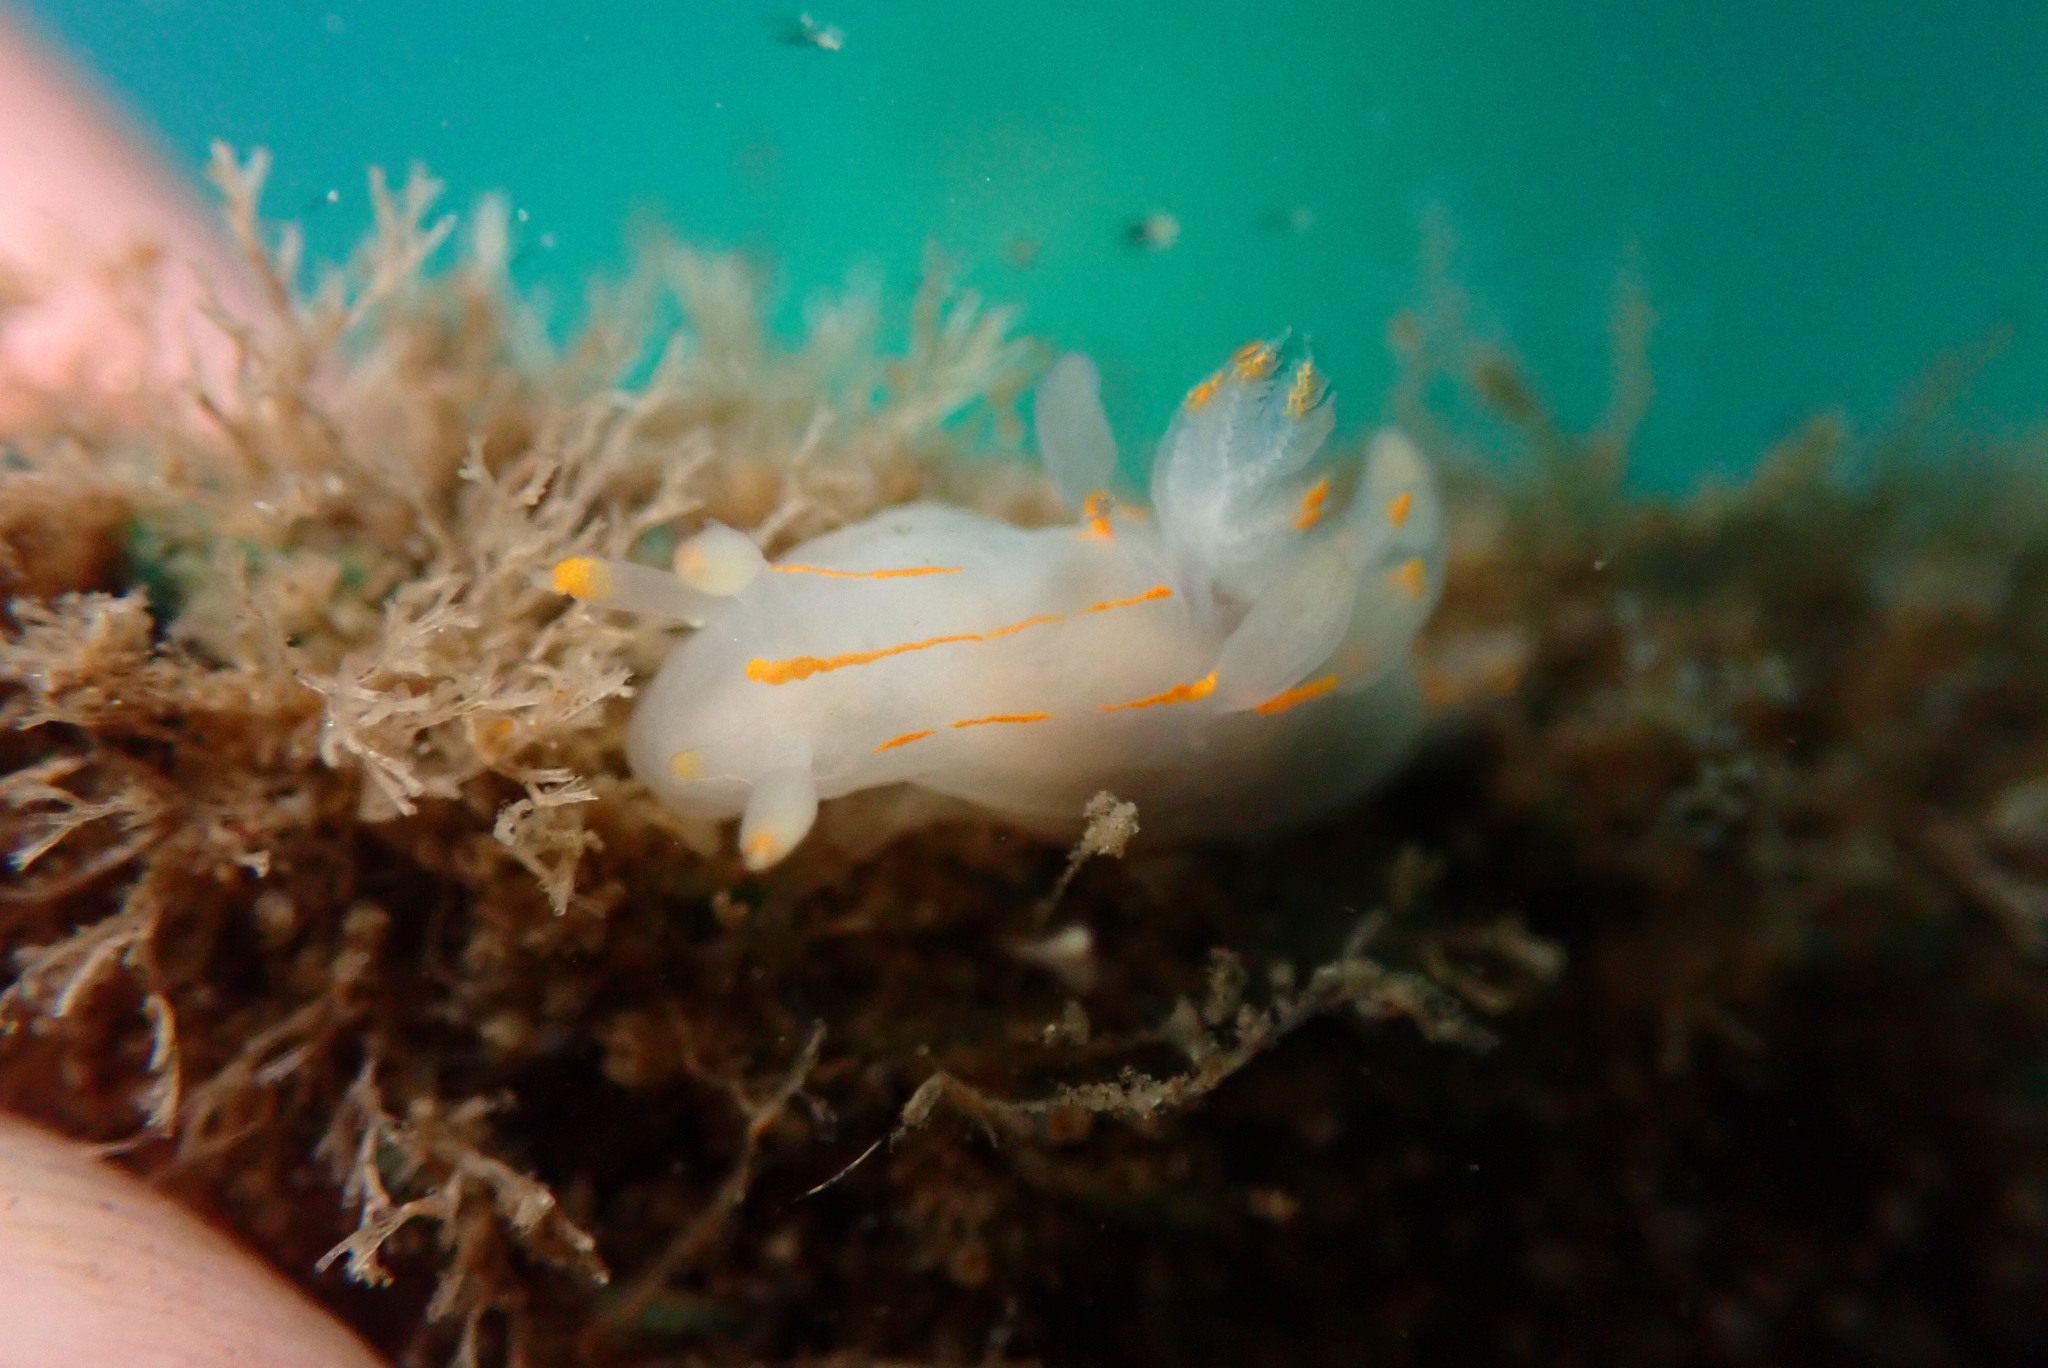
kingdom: Animalia
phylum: Mollusca
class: Gastropoda
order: Nudibranchia
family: Goniodorididae
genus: Ancula
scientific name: Ancula pacifica
